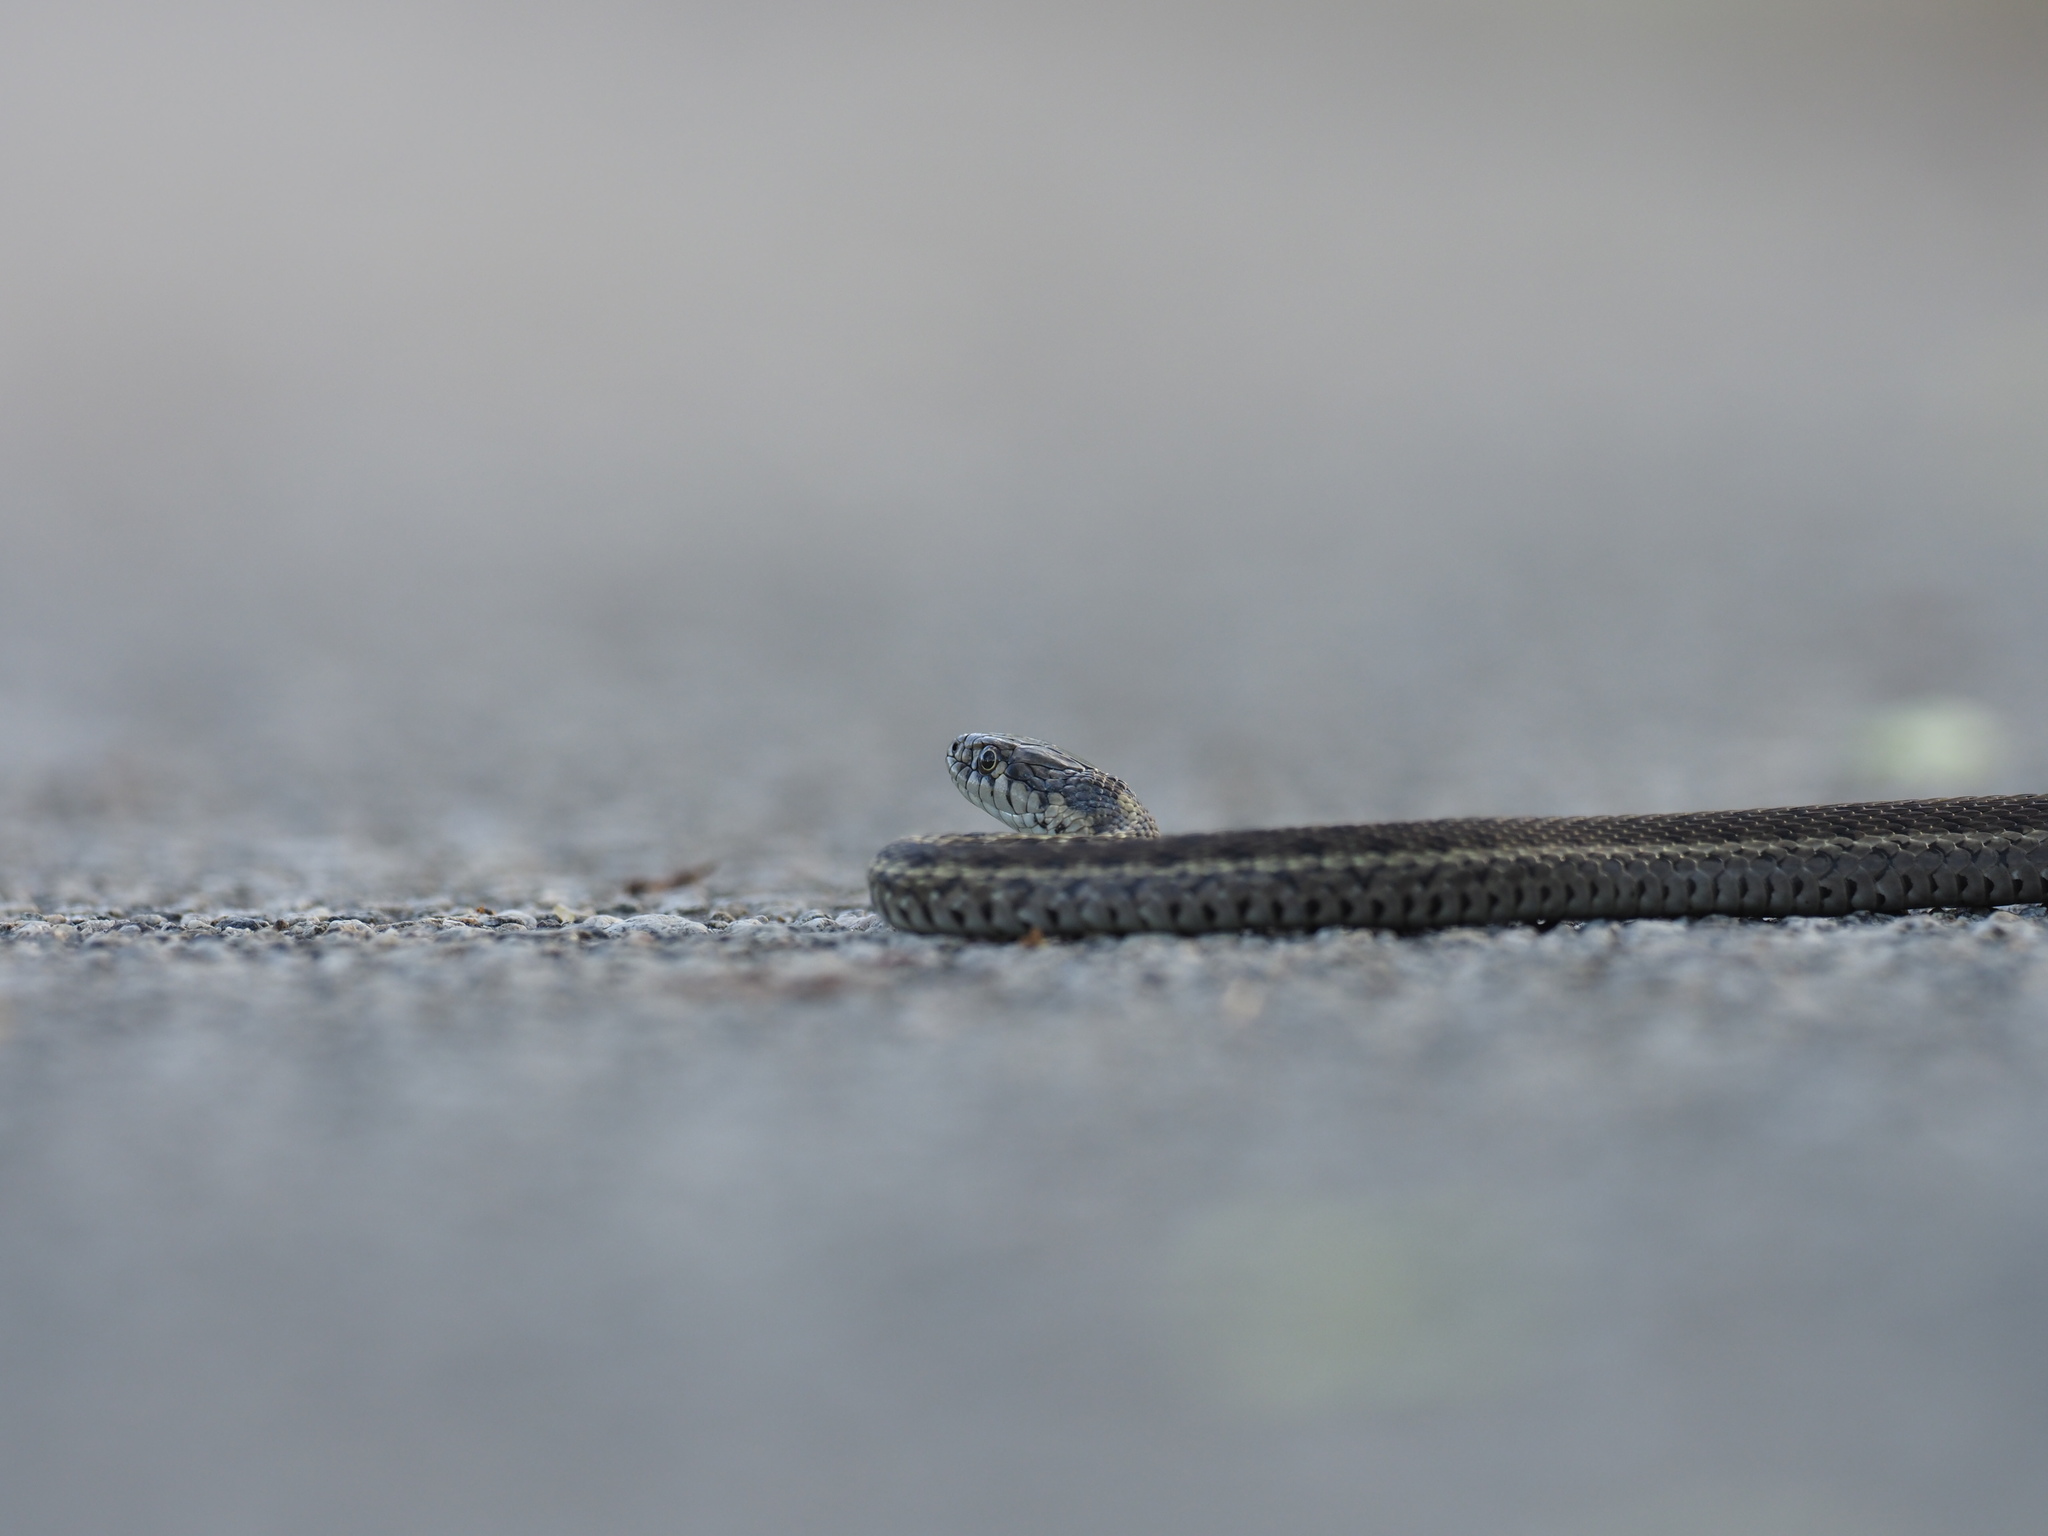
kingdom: Animalia
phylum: Chordata
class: Squamata
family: Colubridae
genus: Thamnophis
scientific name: Thamnophis elegans
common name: Western terrestrial garter snake
